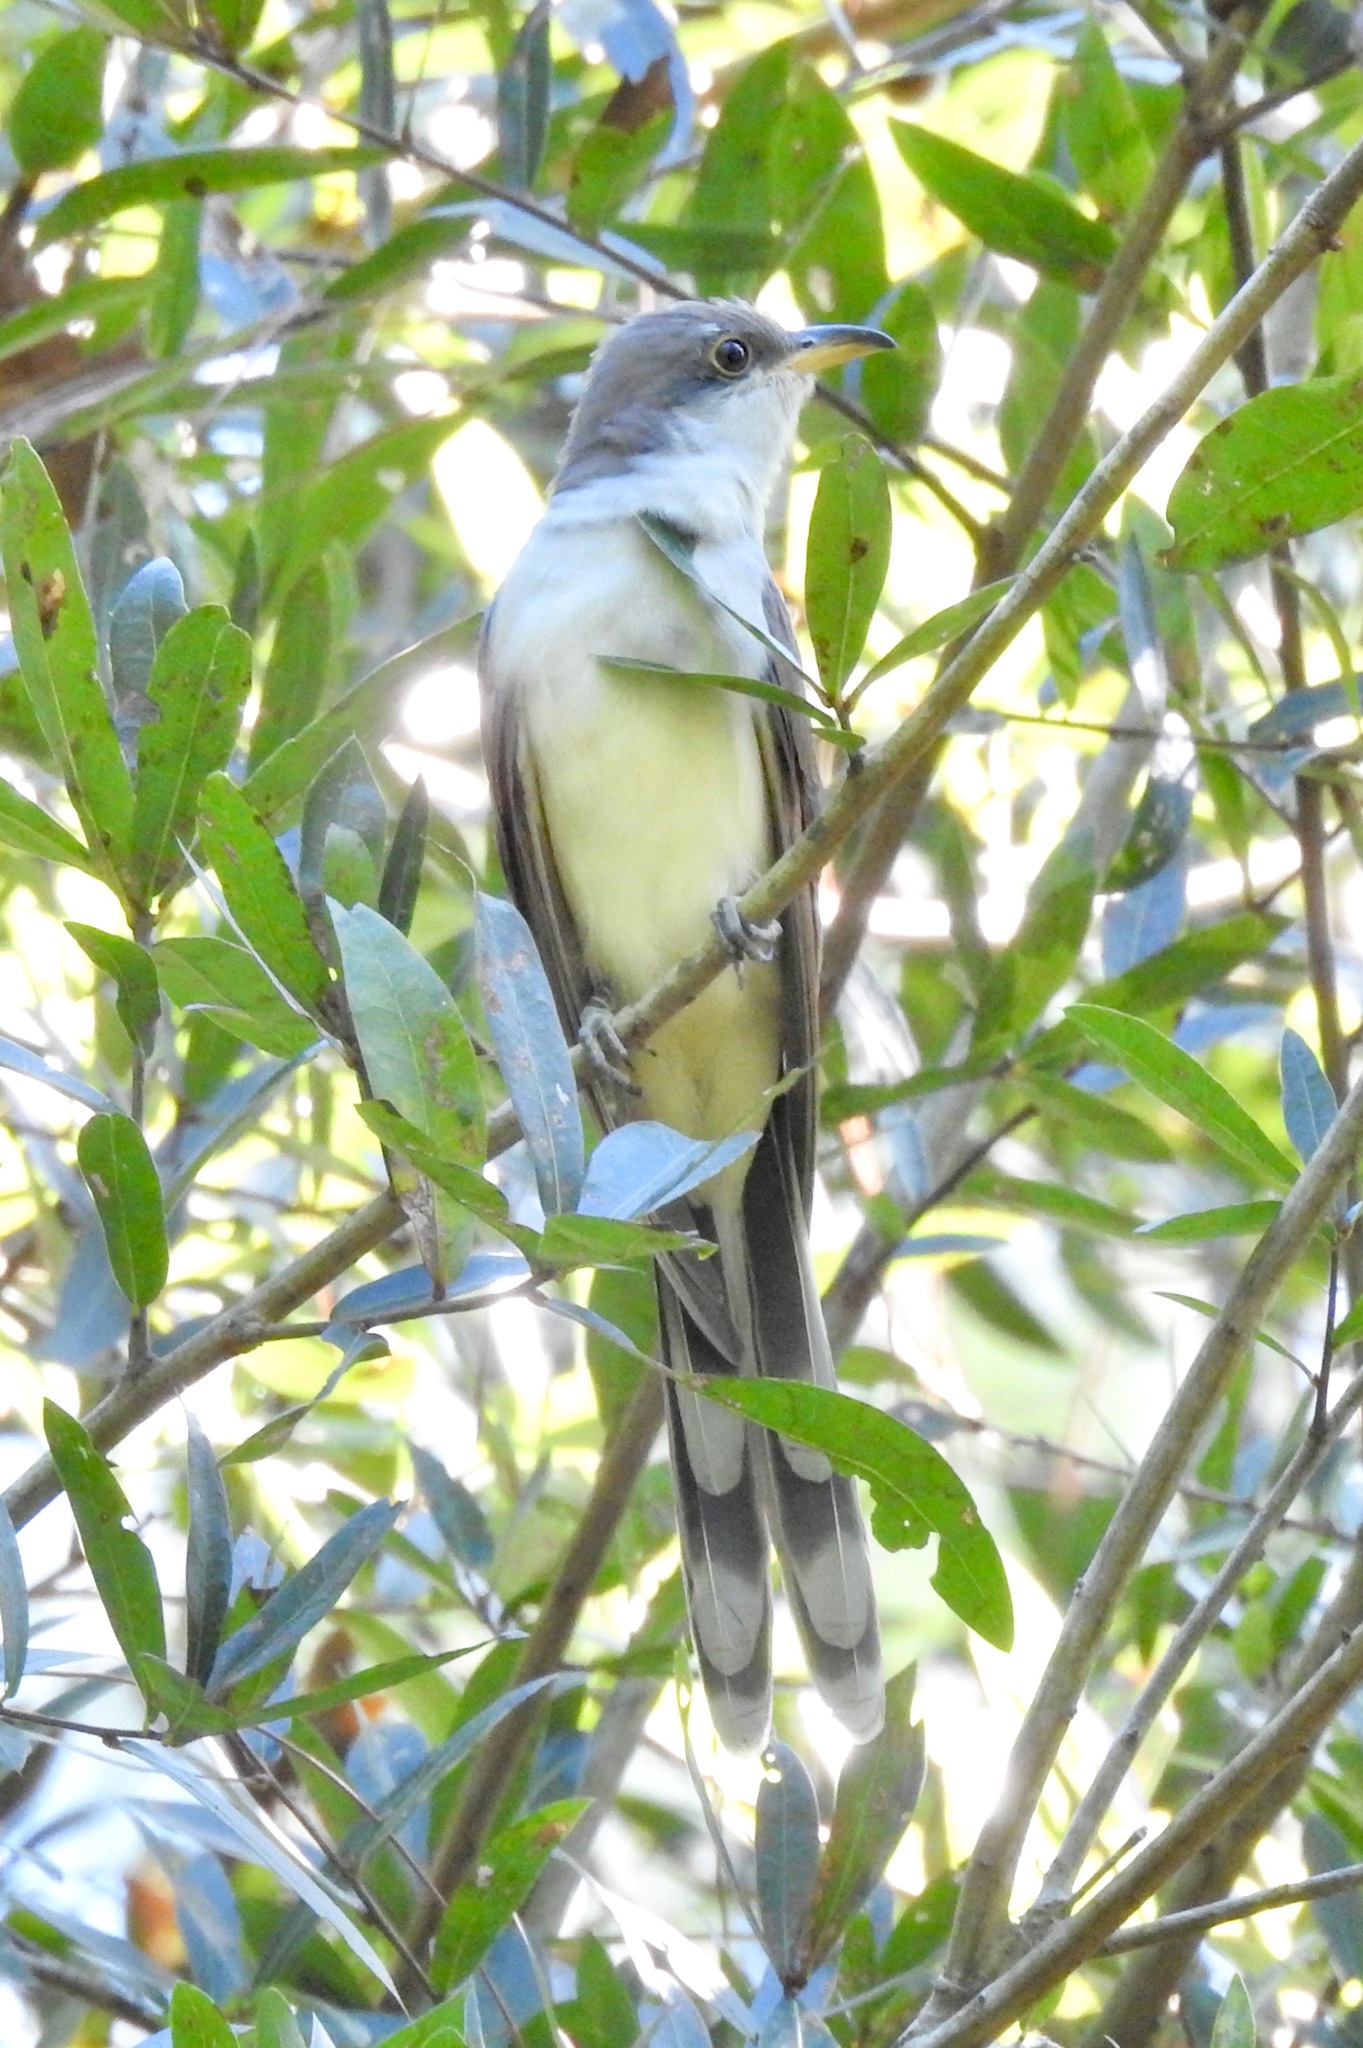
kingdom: Animalia
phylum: Chordata
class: Aves
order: Cuculiformes
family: Cuculidae
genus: Coccyzus
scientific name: Coccyzus americanus
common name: Yellow-billed cuckoo
